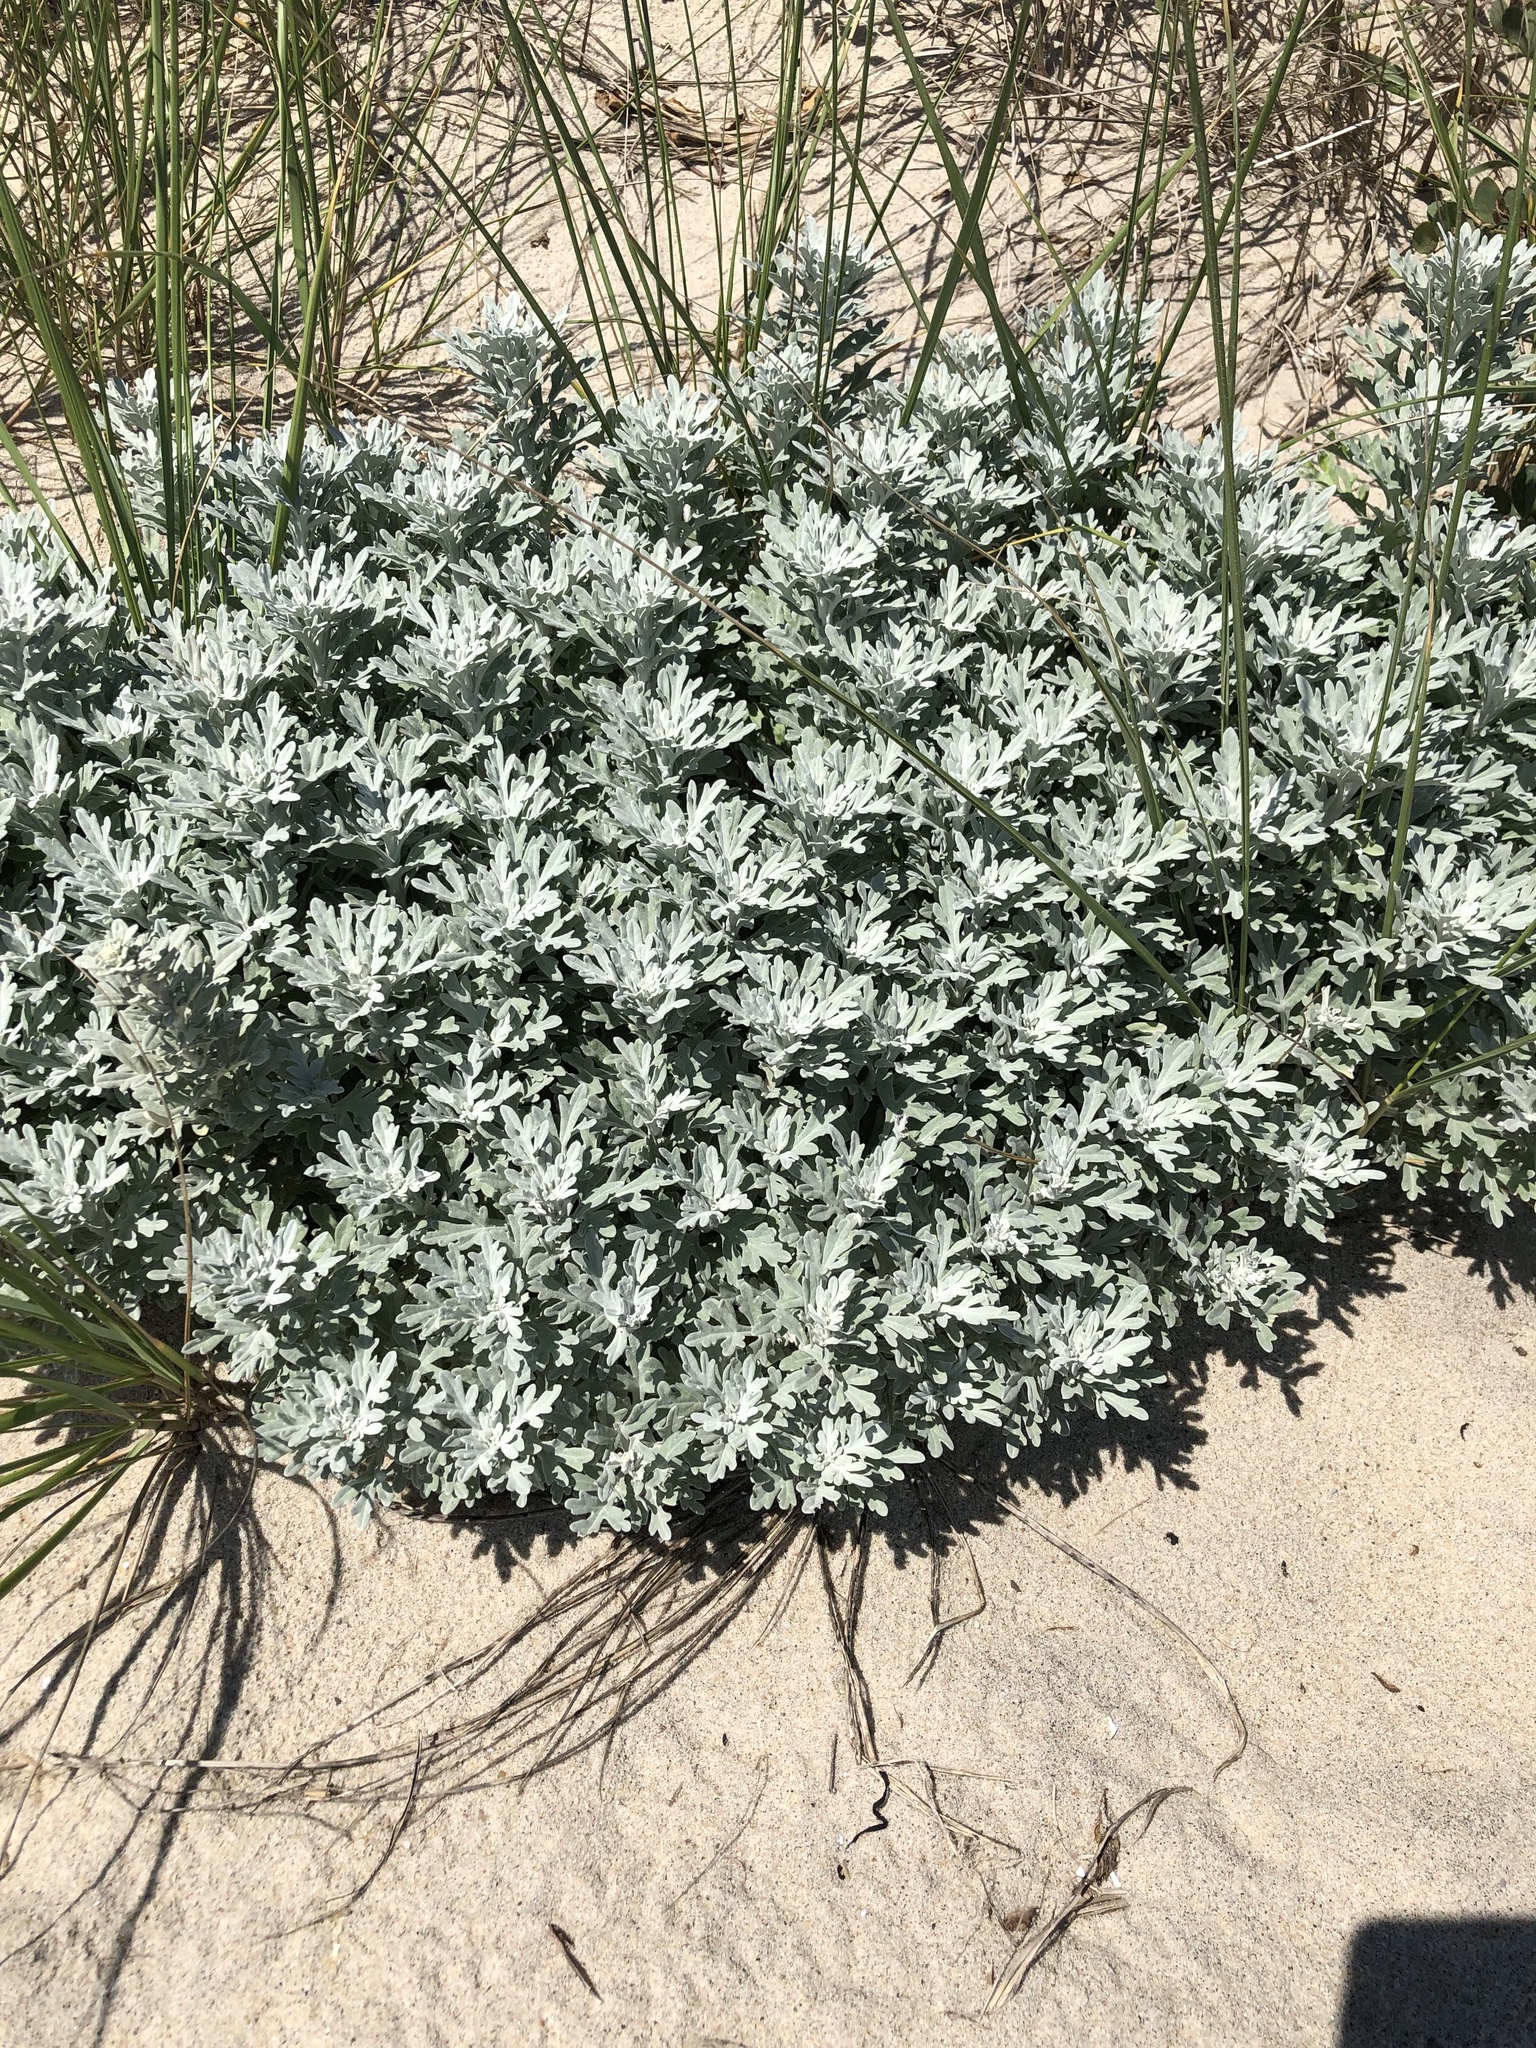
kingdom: Plantae
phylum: Tracheophyta
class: Magnoliopsida
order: Asterales
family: Asteraceae
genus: Artemisia
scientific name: Artemisia stelleriana
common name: Beach wormwood
